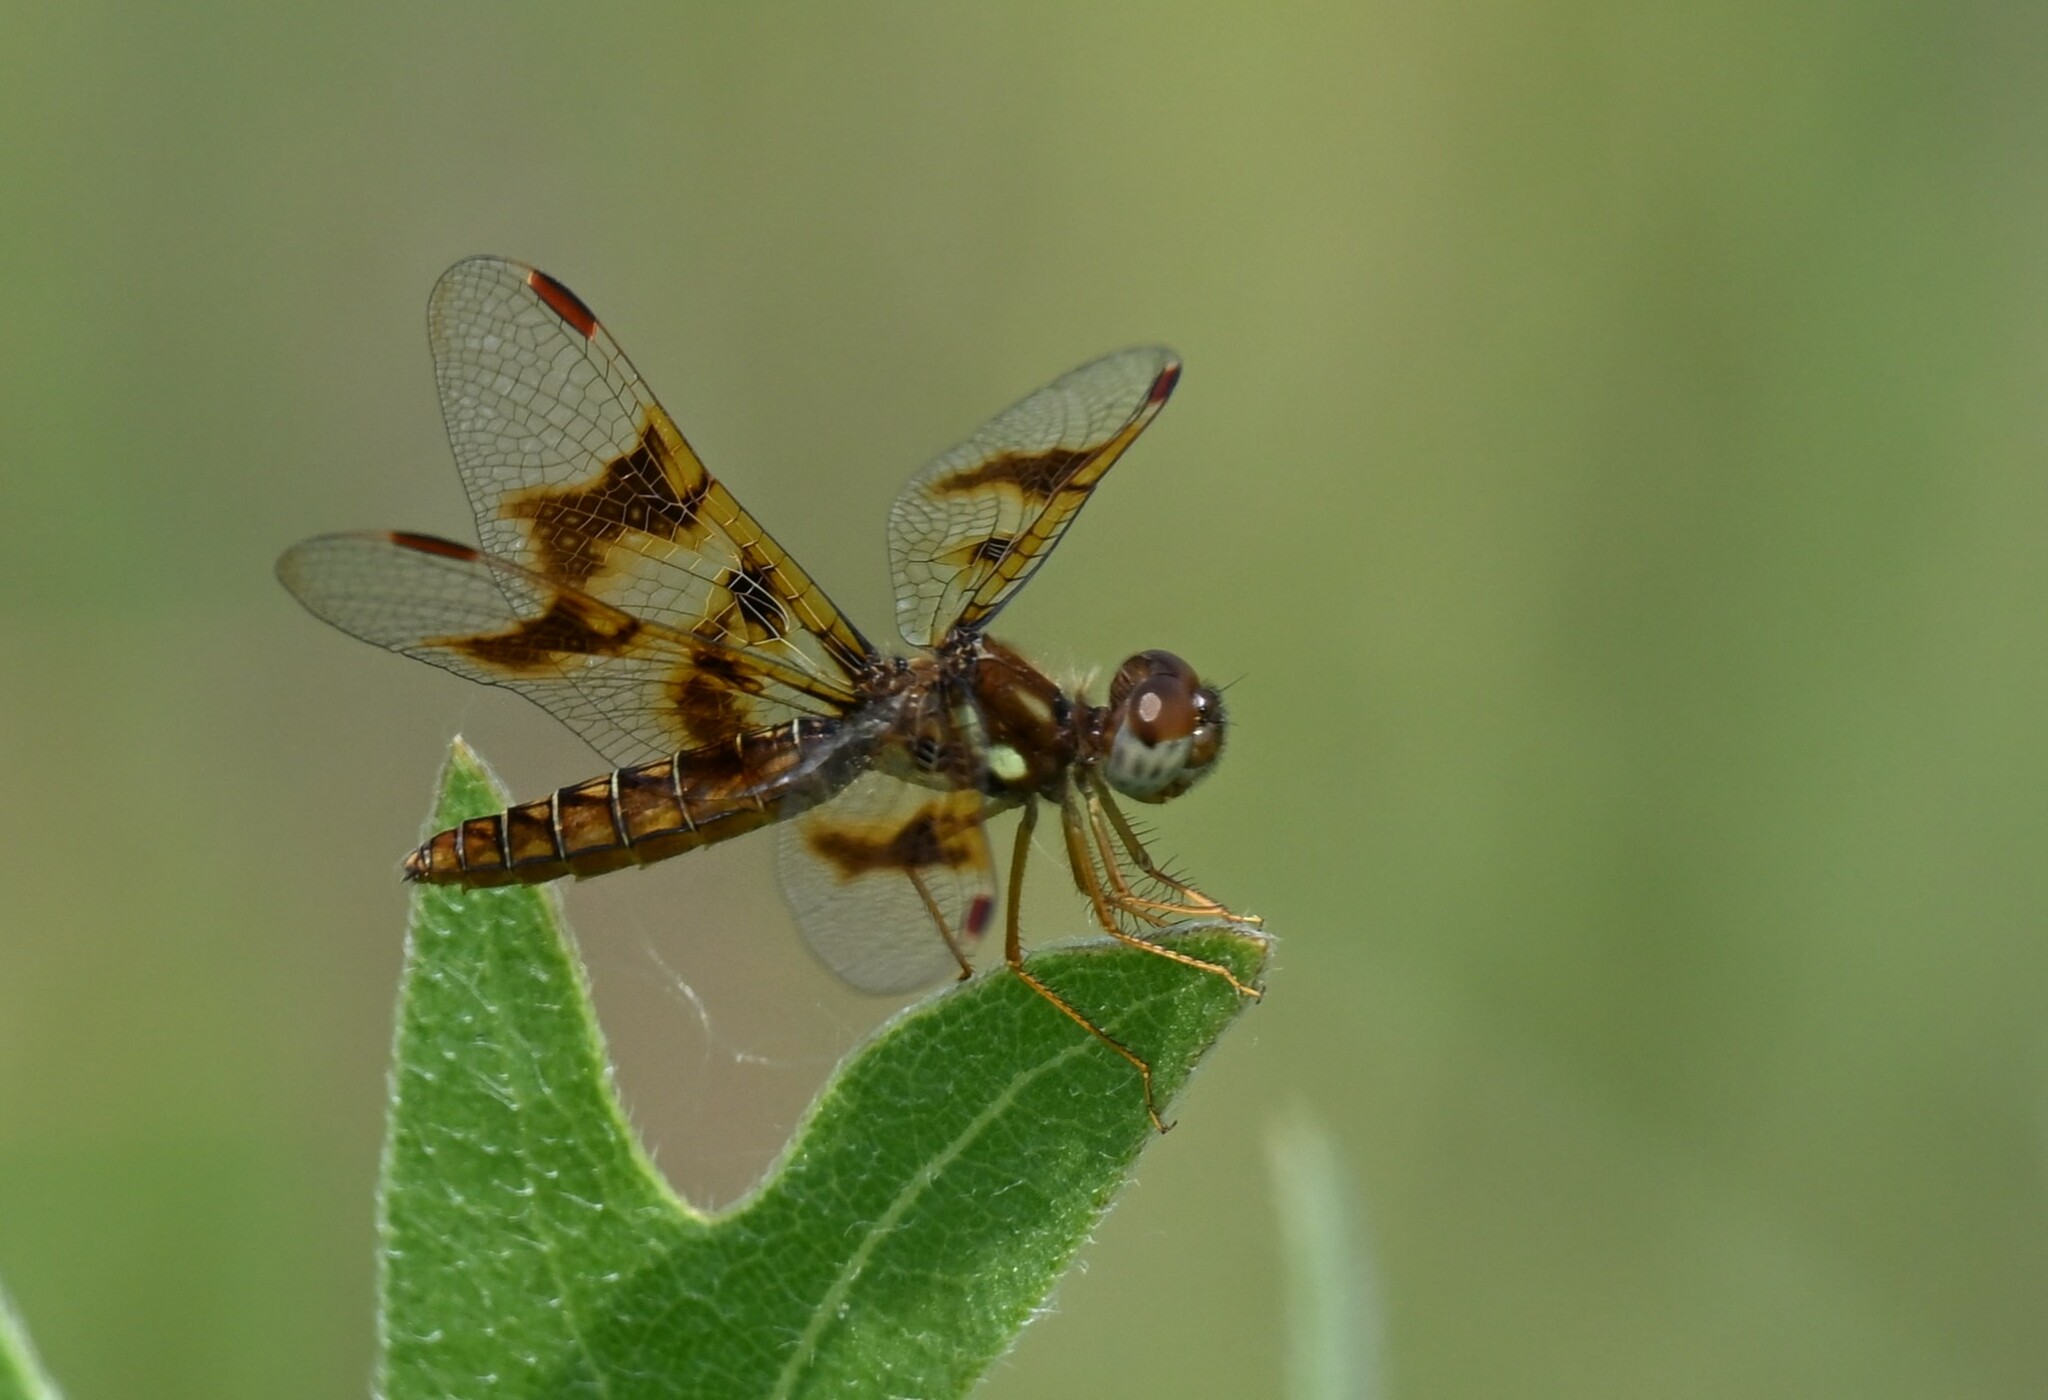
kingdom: Animalia
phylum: Arthropoda
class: Insecta
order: Odonata
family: Libellulidae
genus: Perithemis
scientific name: Perithemis tenera
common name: Eastern amberwing
